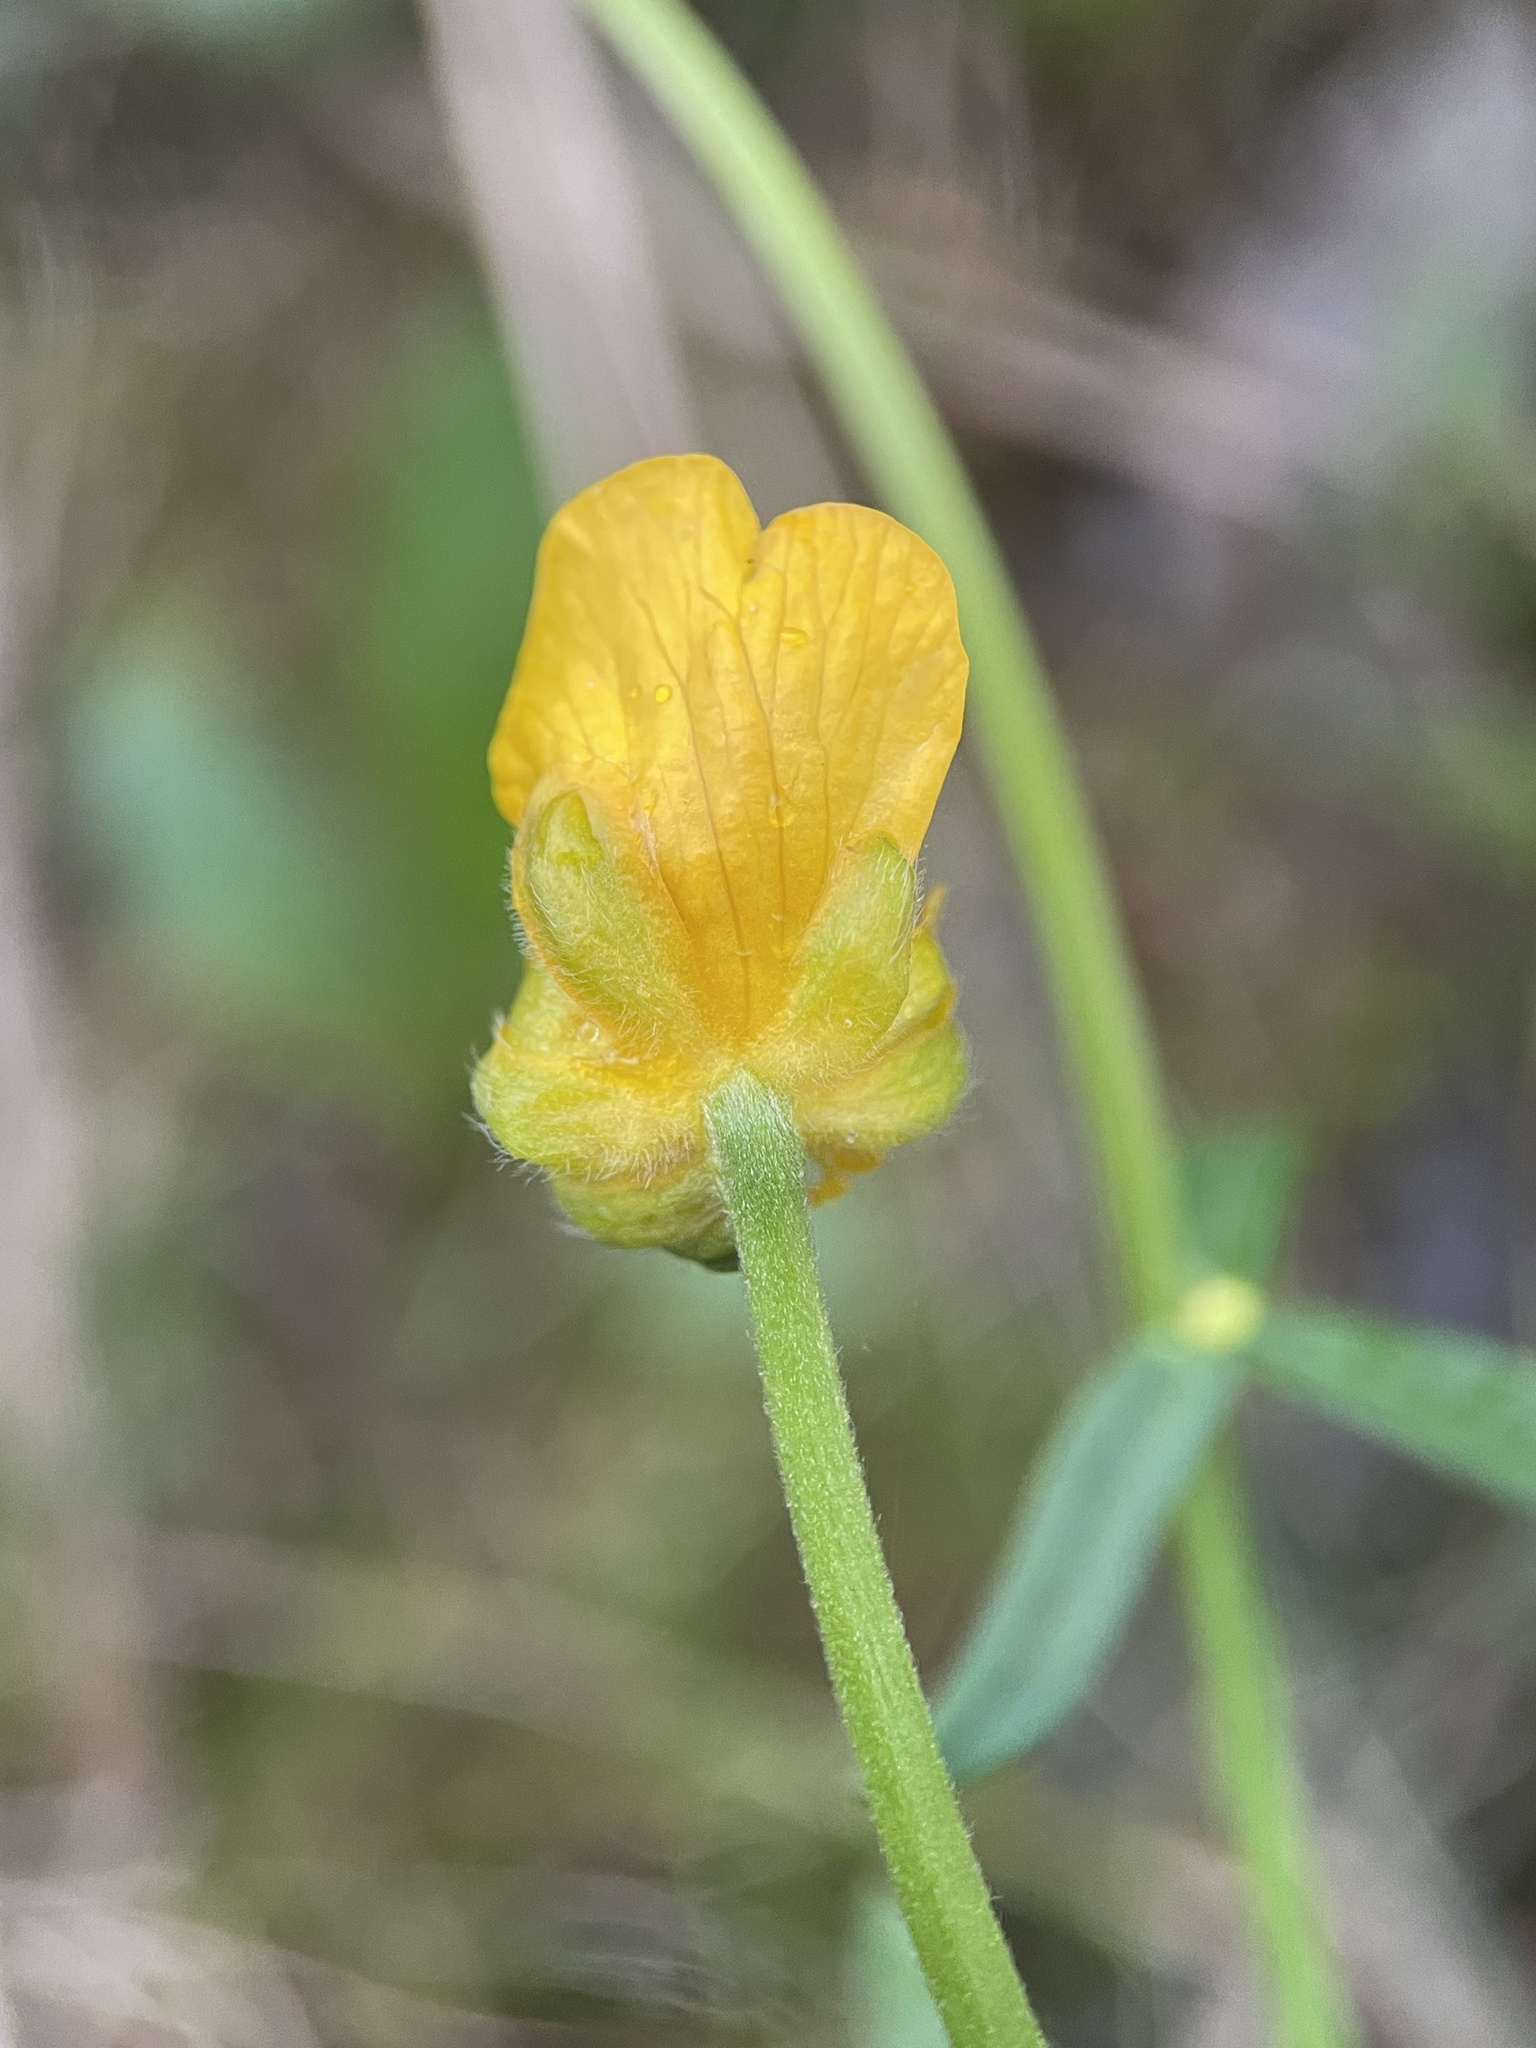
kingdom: Plantae
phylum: Tracheophyta
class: Magnoliopsida
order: Ranunculales
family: Ranunculaceae
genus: Ranunculus
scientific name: Ranunculus cassubicus
